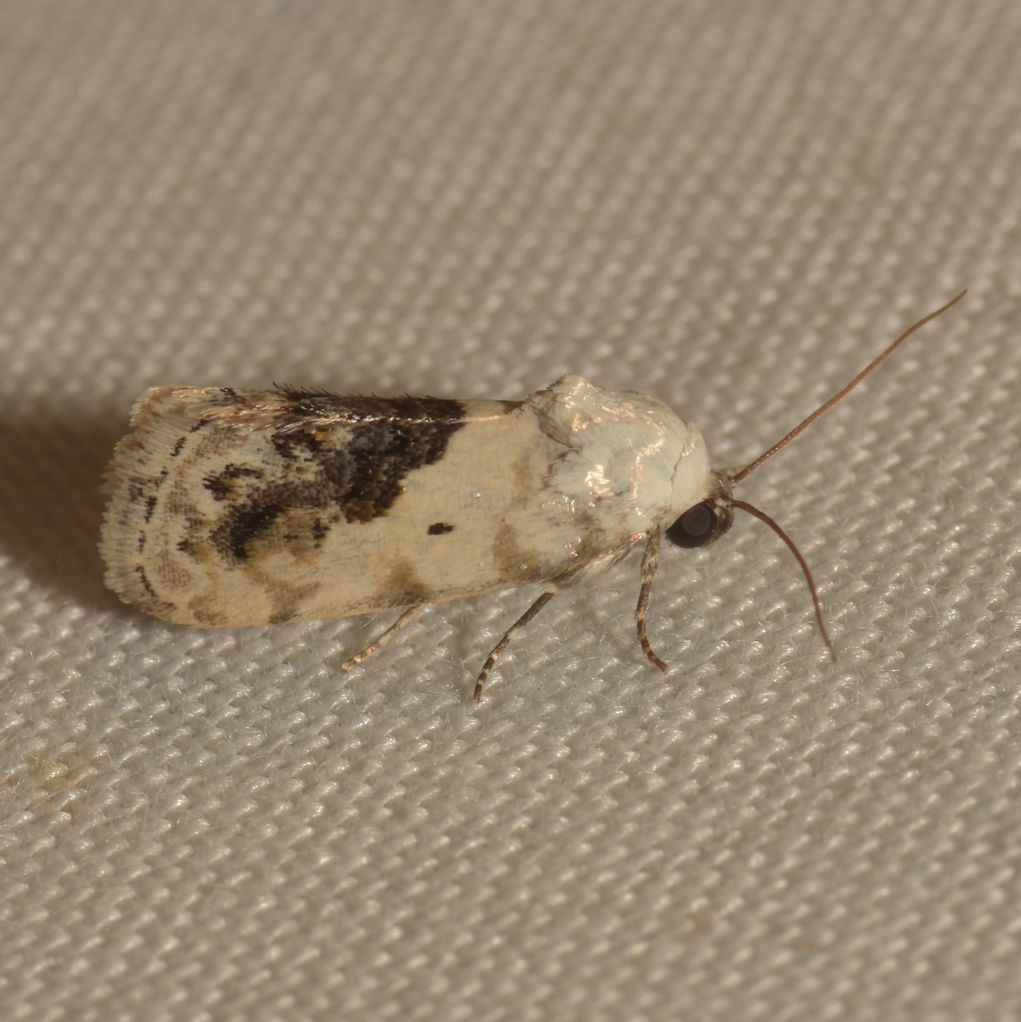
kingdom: Animalia
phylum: Arthropoda
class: Insecta
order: Lepidoptera
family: Noctuidae
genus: Acontia
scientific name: Acontia erastrioides
